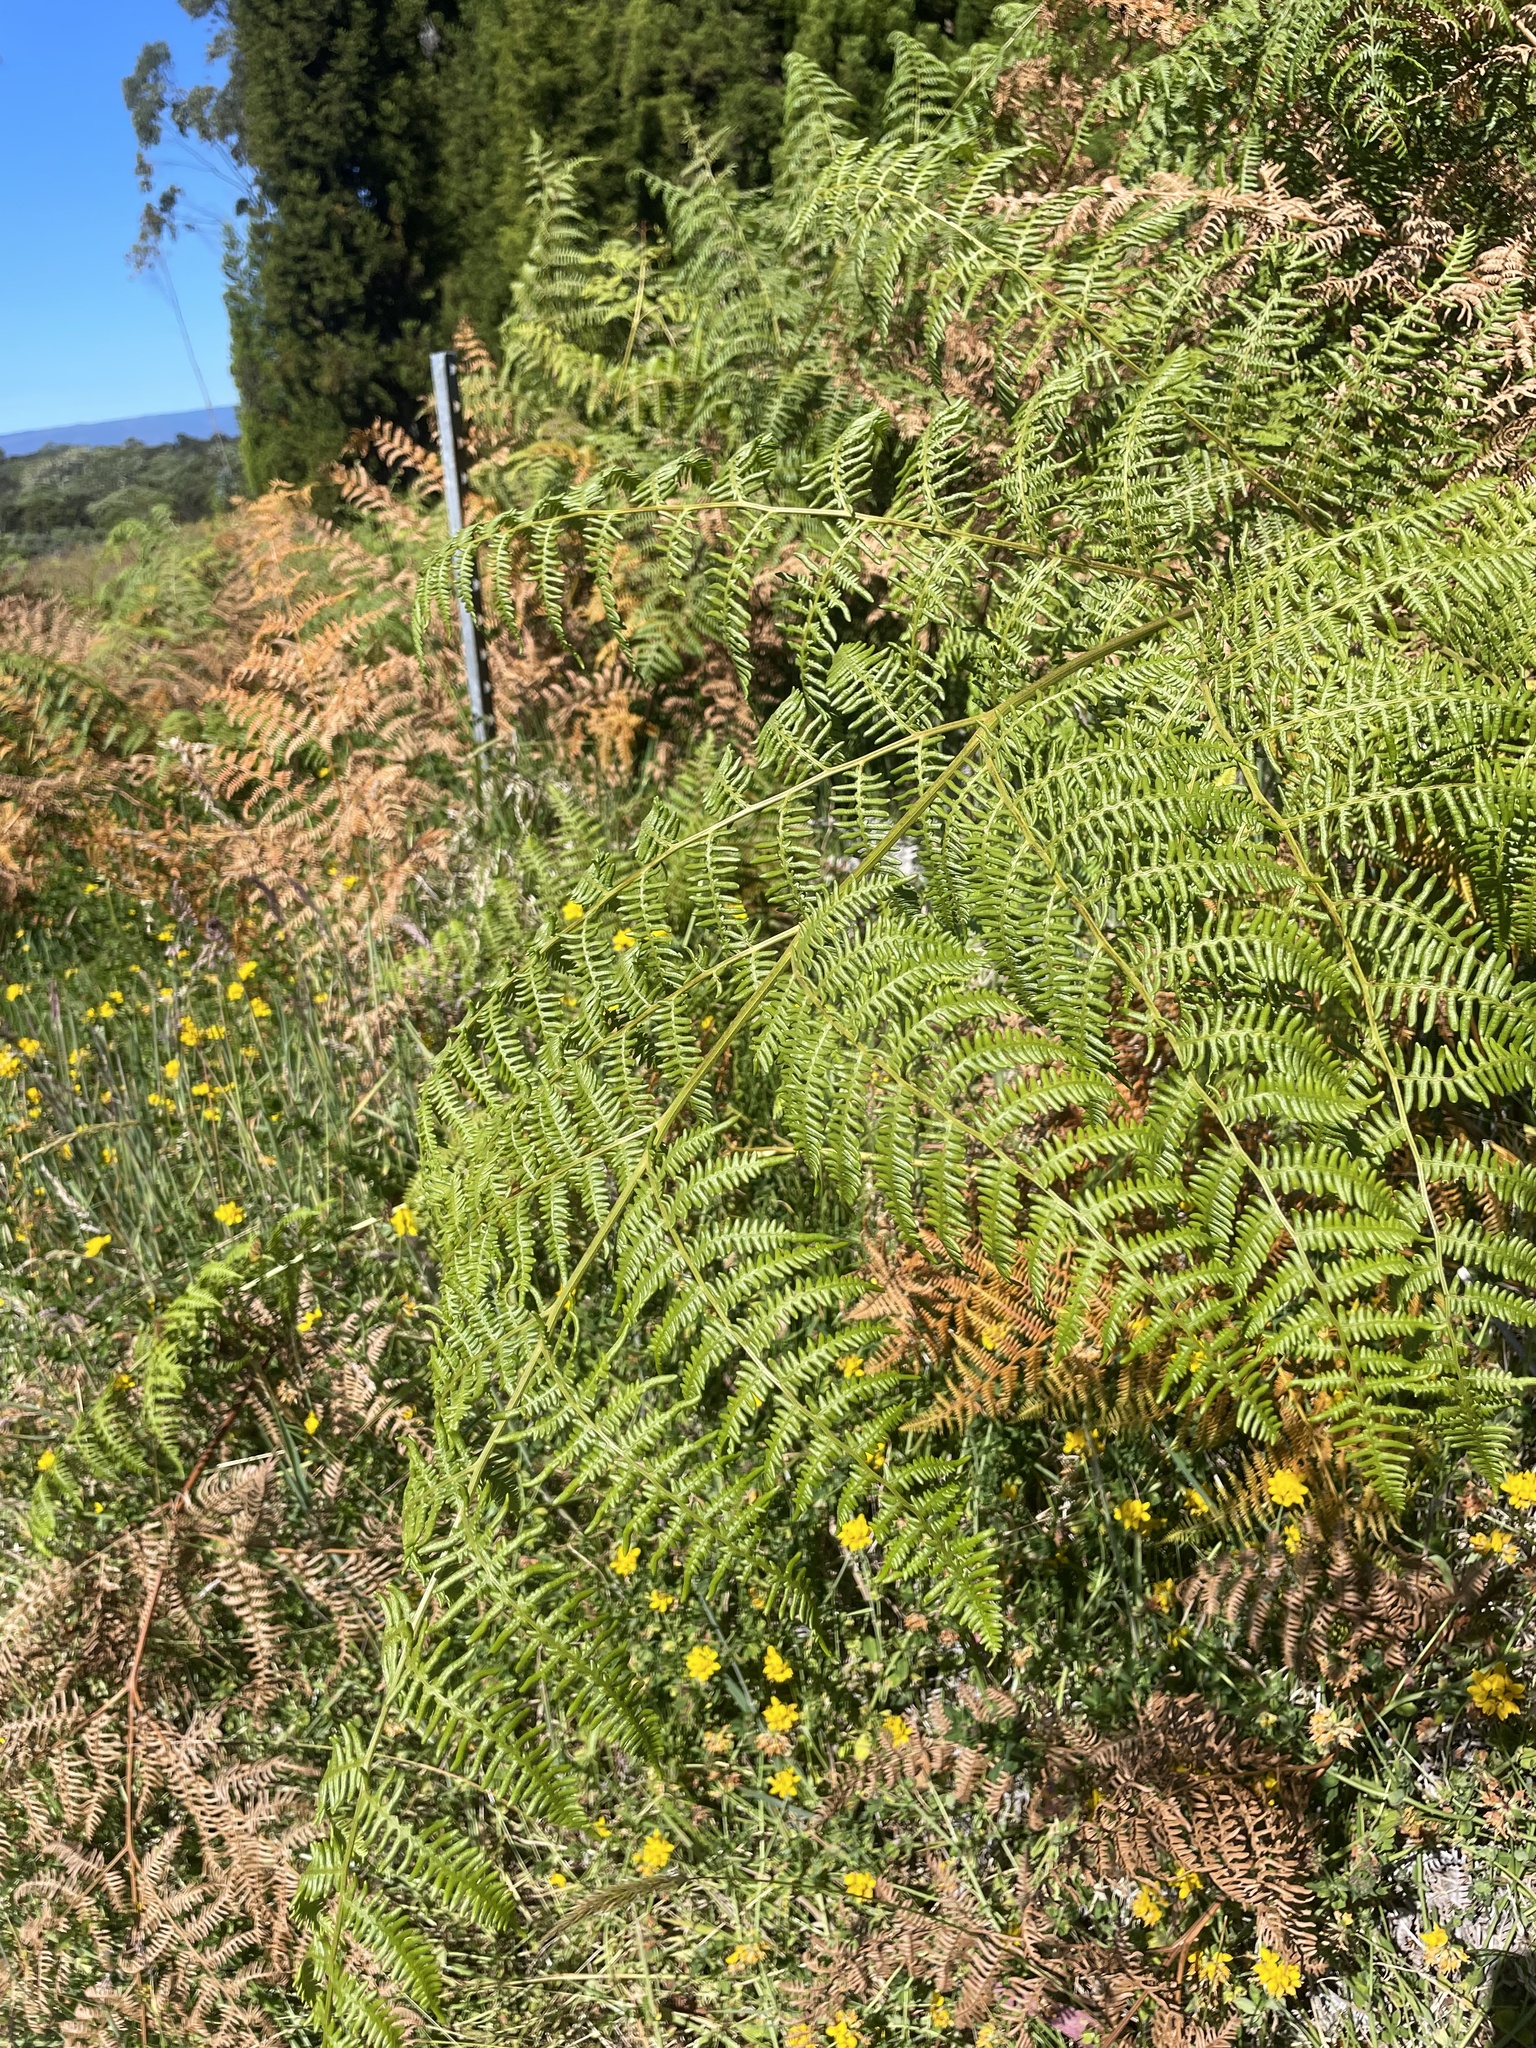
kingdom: Plantae
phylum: Tracheophyta
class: Polypodiopsida
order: Polypodiales
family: Dennstaedtiaceae
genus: Pteridium
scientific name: Pteridium aquilinum
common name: Bracken
